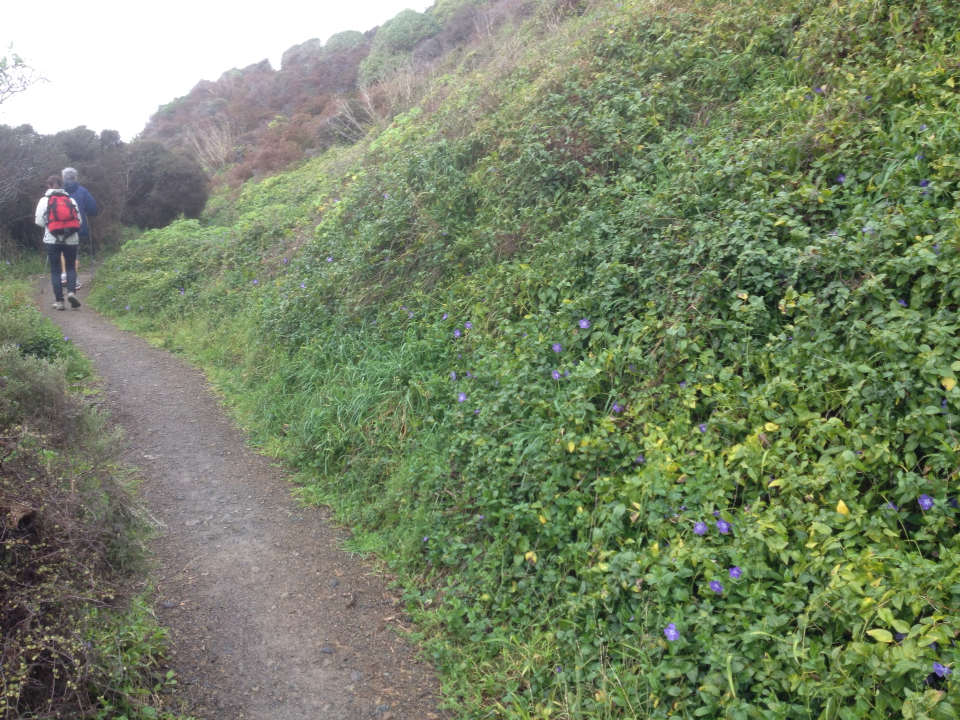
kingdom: Plantae
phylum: Tracheophyta
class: Magnoliopsida
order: Gentianales
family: Apocynaceae
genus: Vinca
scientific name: Vinca major
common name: Greater periwinkle
